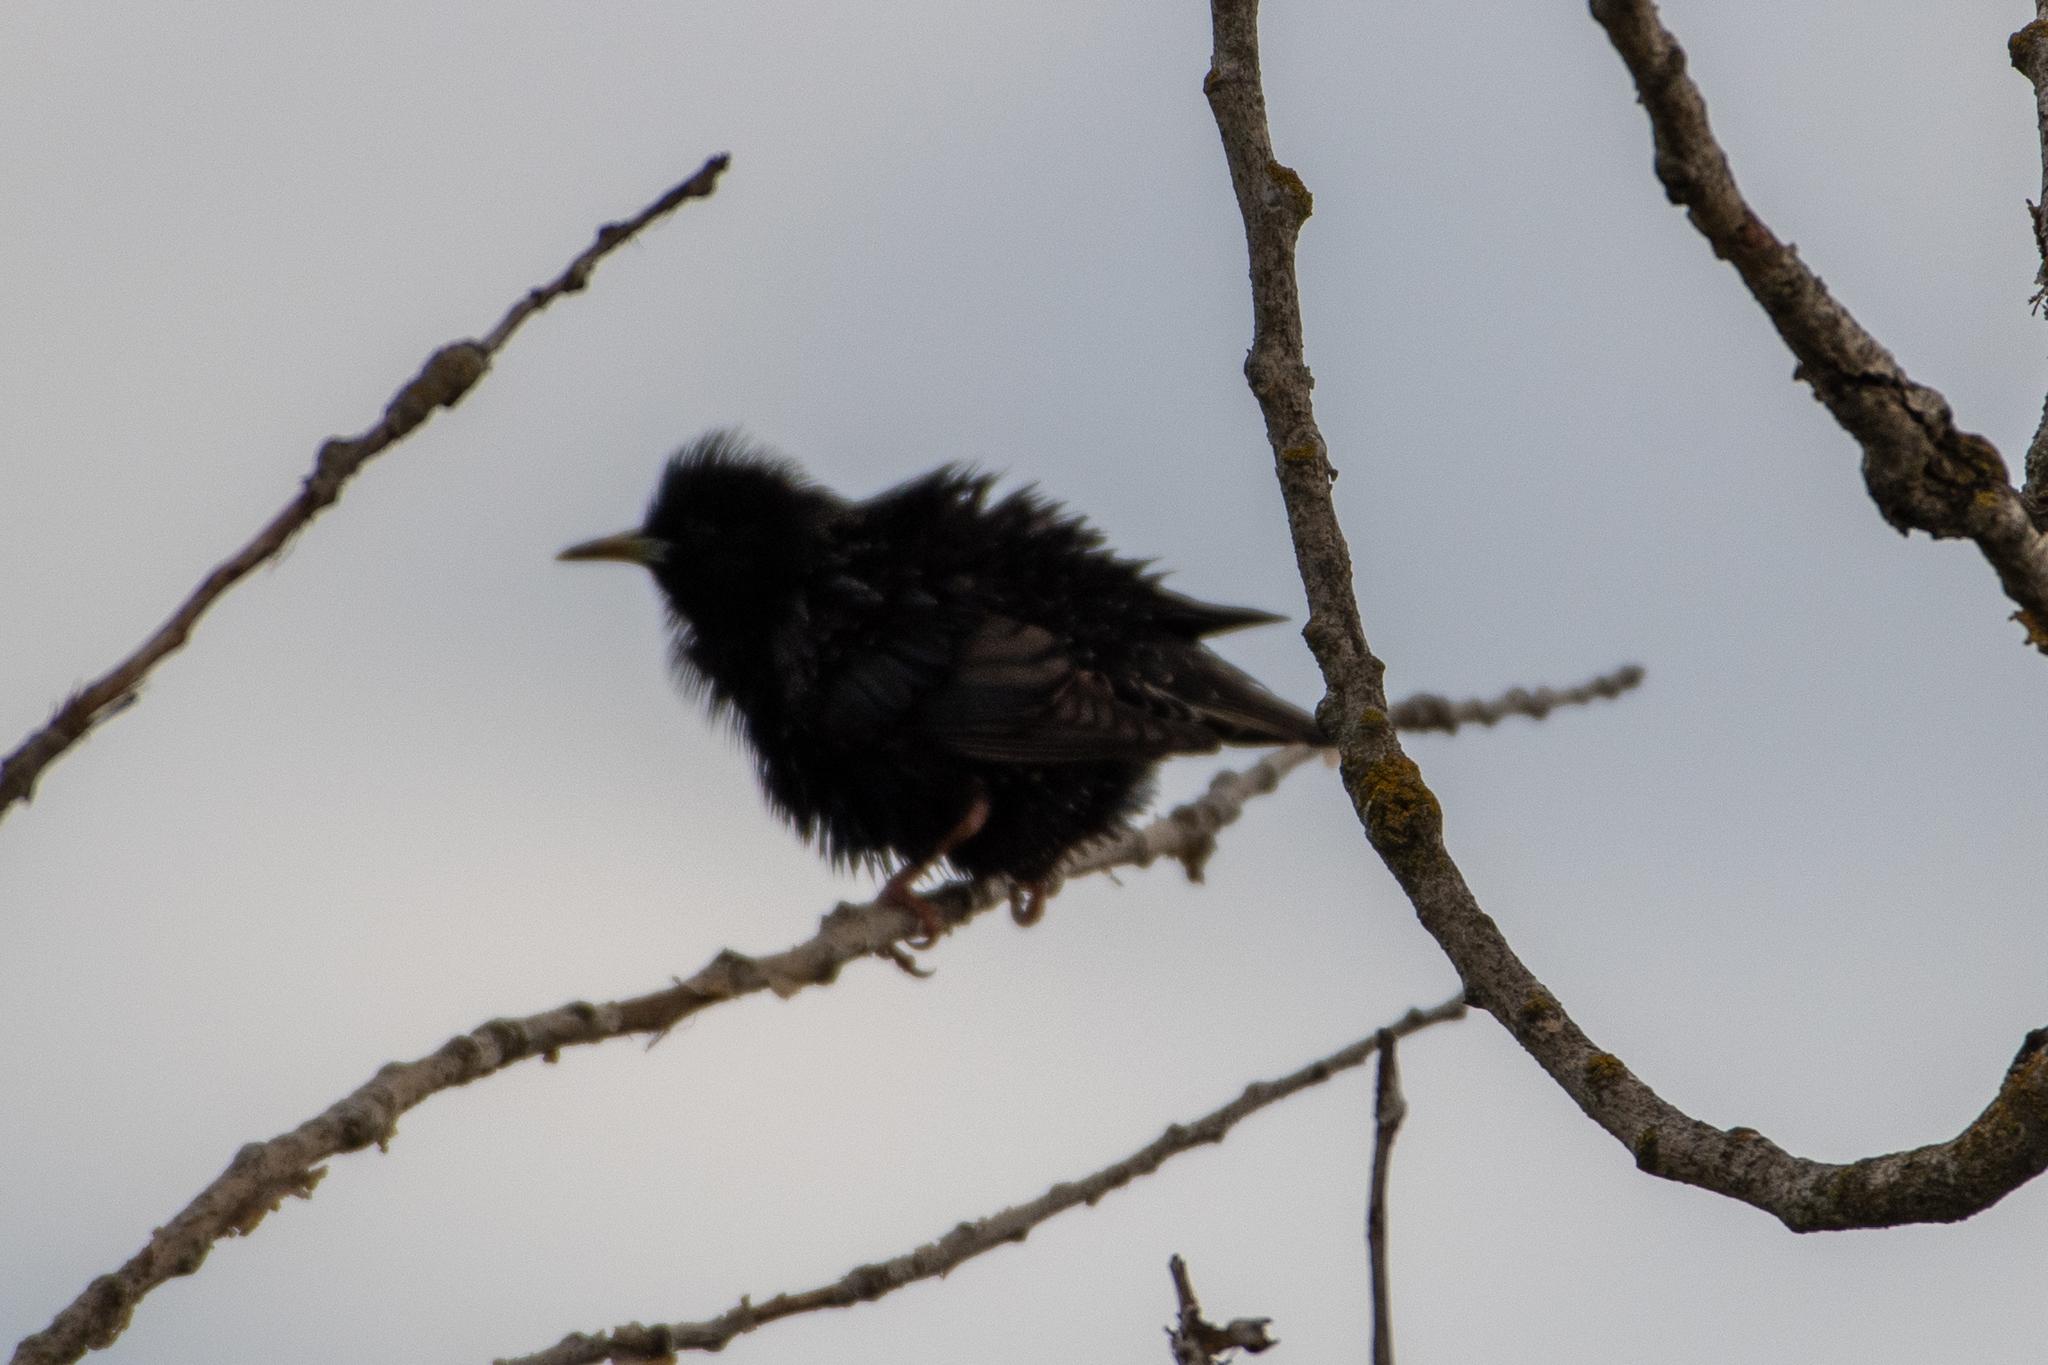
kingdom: Animalia
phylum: Chordata
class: Aves
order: Passeriformes
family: Sturnidae
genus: Sturnus
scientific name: Sturnus vulgaris
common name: Common starling
